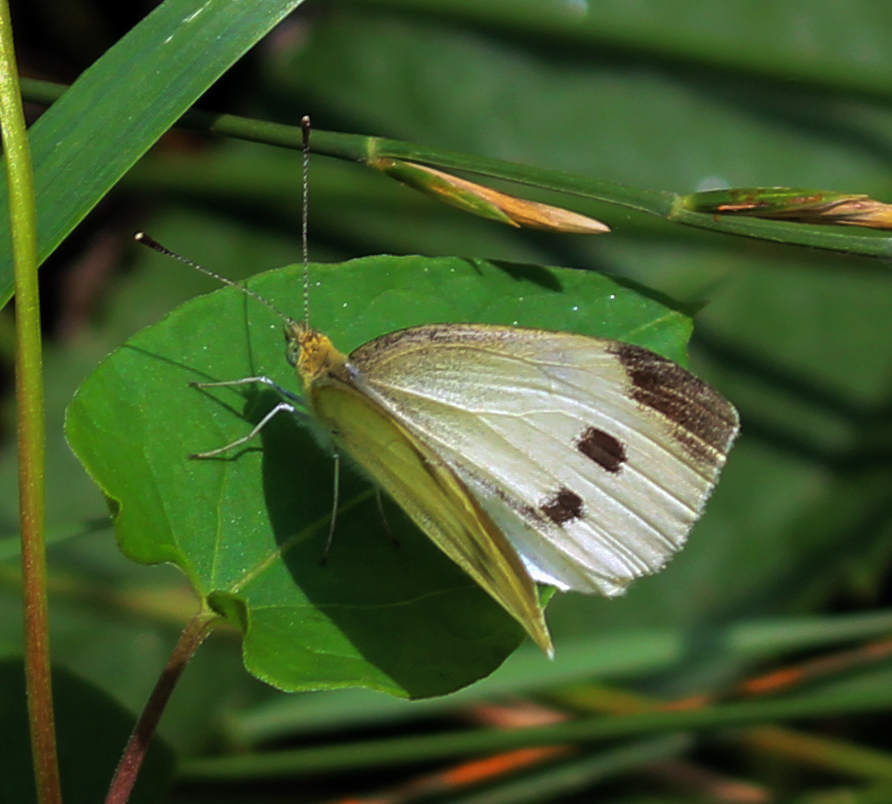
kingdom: Animalia
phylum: Arthropoda
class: Insecta
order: Lepidoptera
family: Pieridae
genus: Pieris
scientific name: Pieris rapae
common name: Small white
